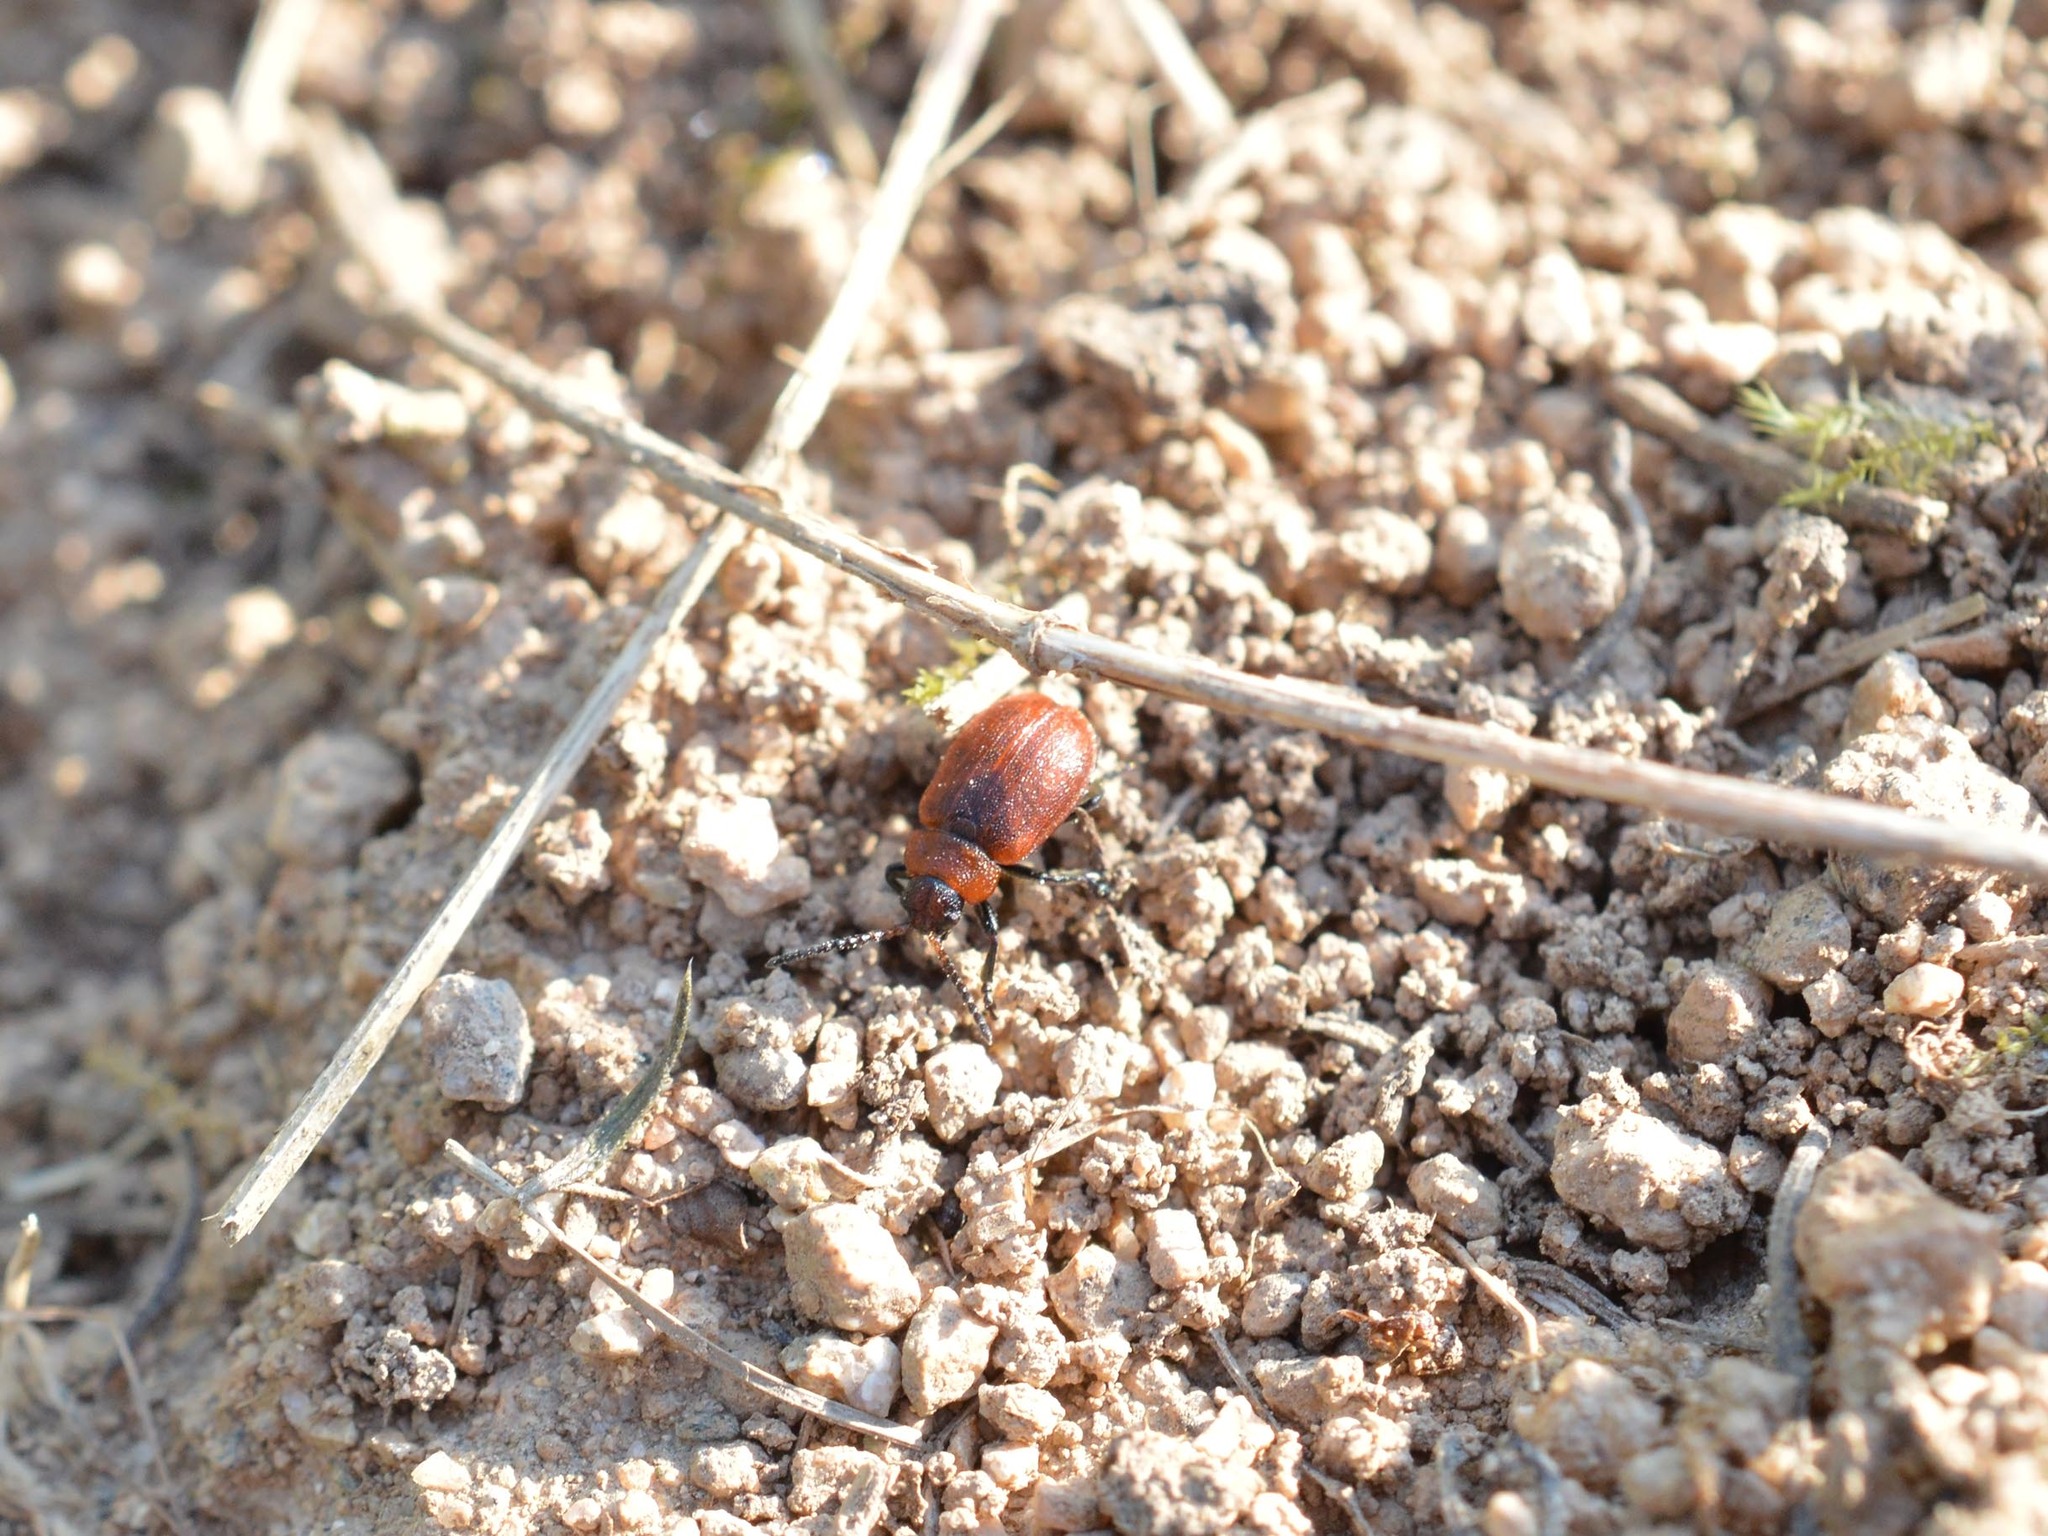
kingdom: Animalia
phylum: Arthropoda
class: Insecta
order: Coleoptera
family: Chrysomelidae
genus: Emarhopa
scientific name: Emarhopa rufa
